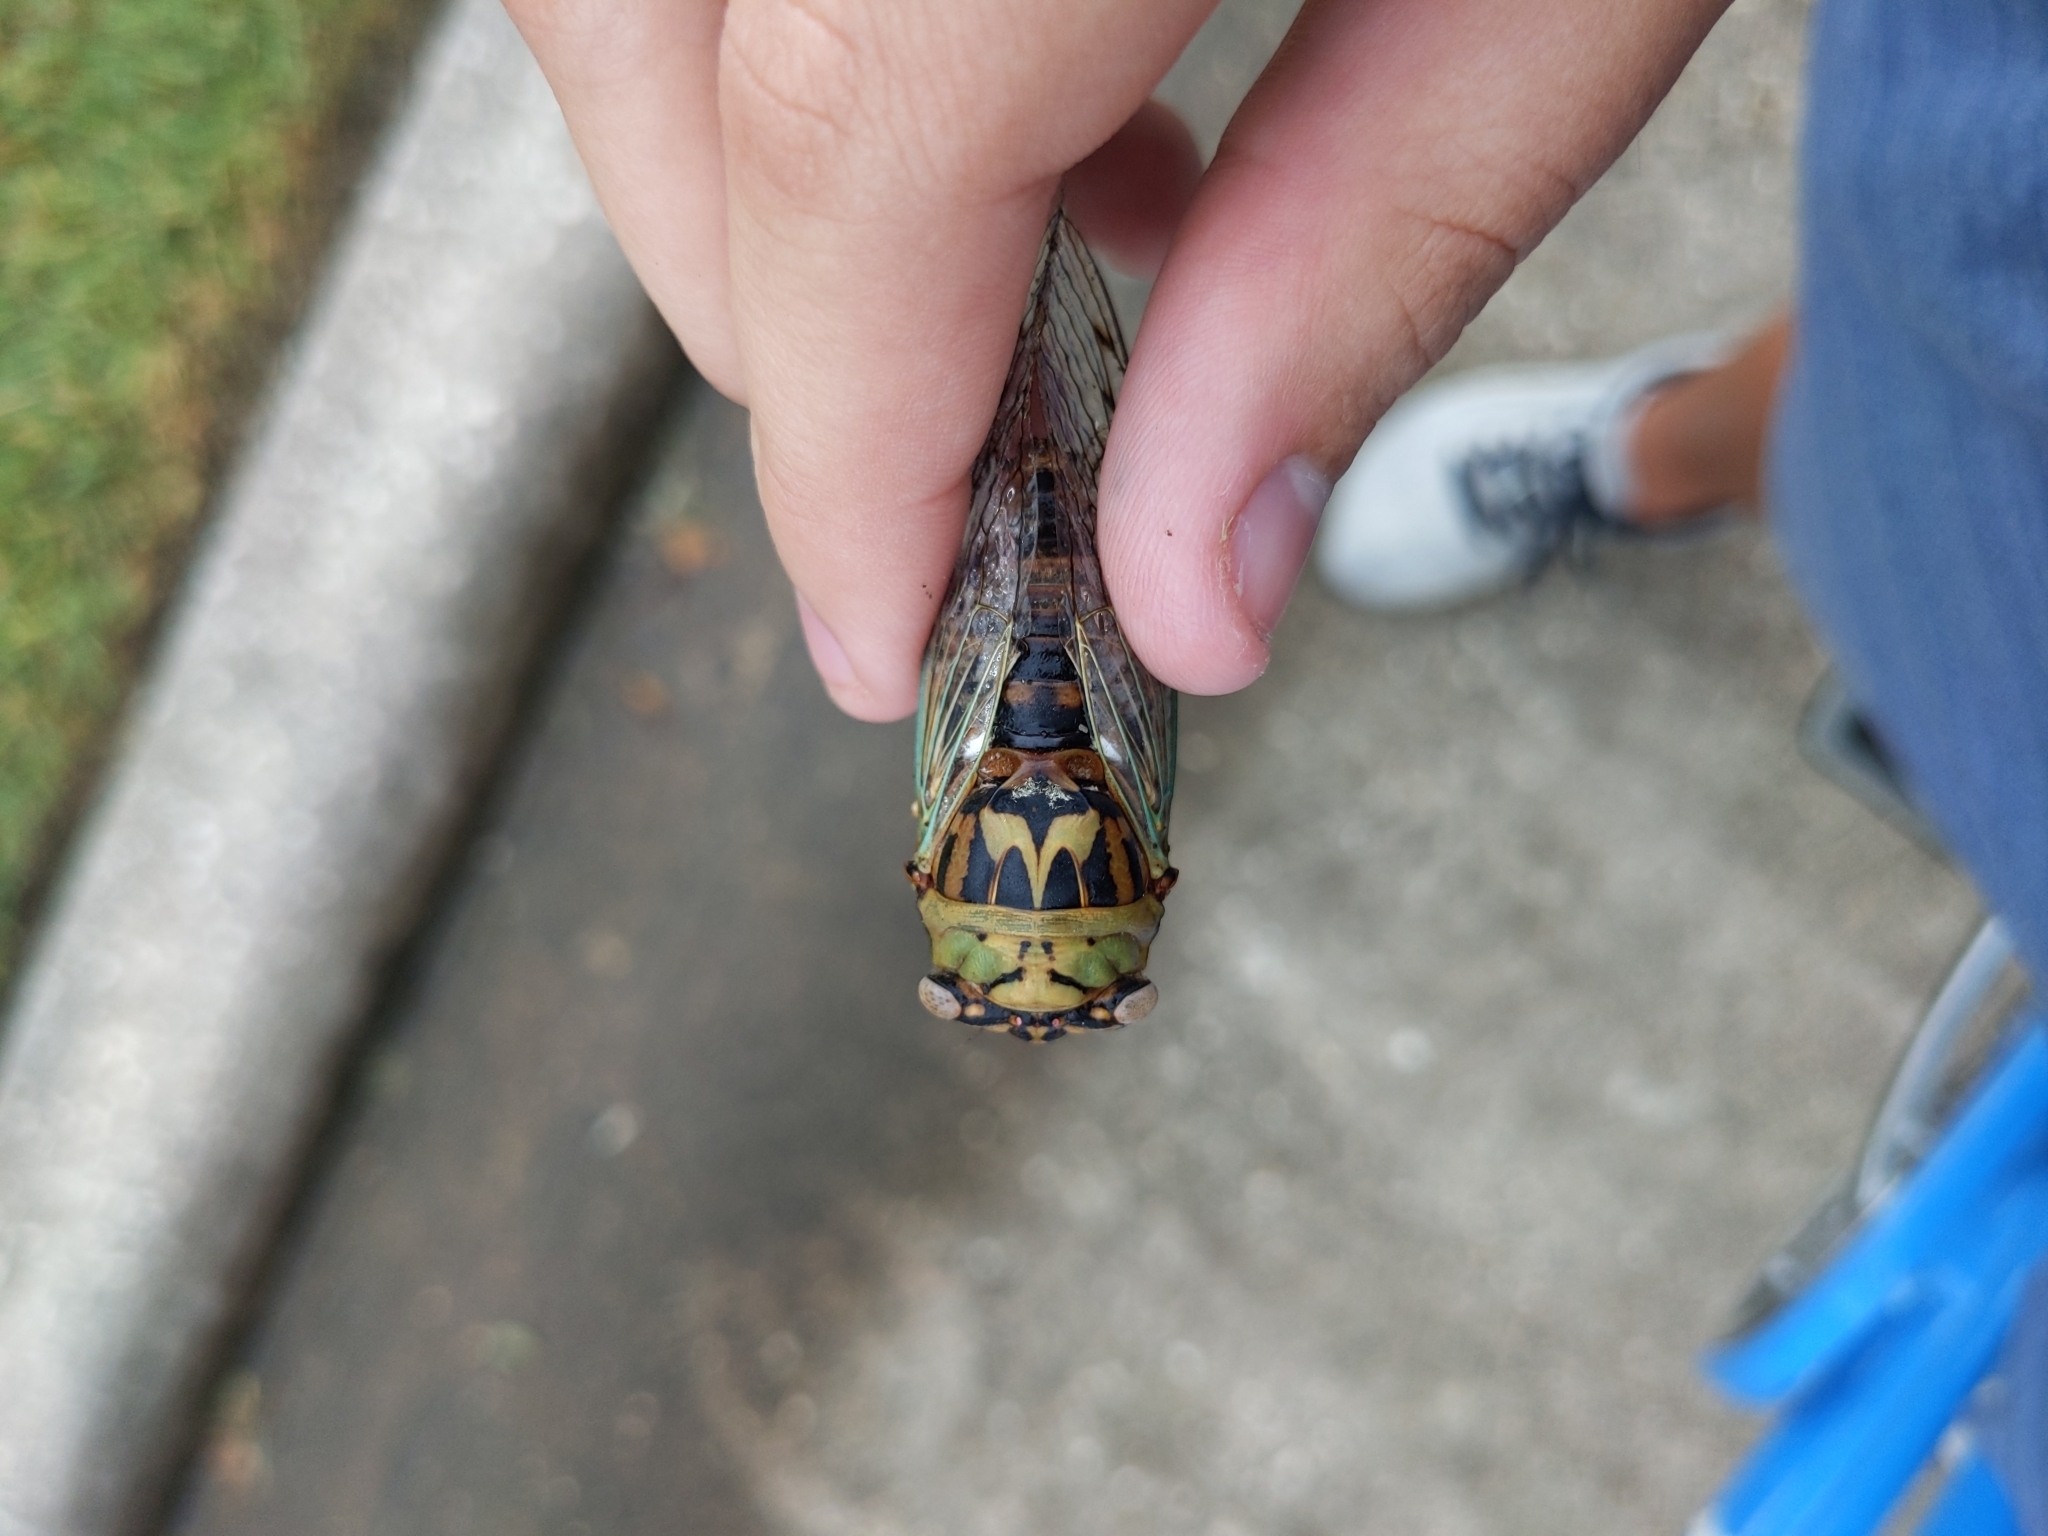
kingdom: Animalia
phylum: Arthropoda
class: Insecta
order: Hemiptera
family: Cicadidae
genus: Megatibicen
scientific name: Megatibicen resh
